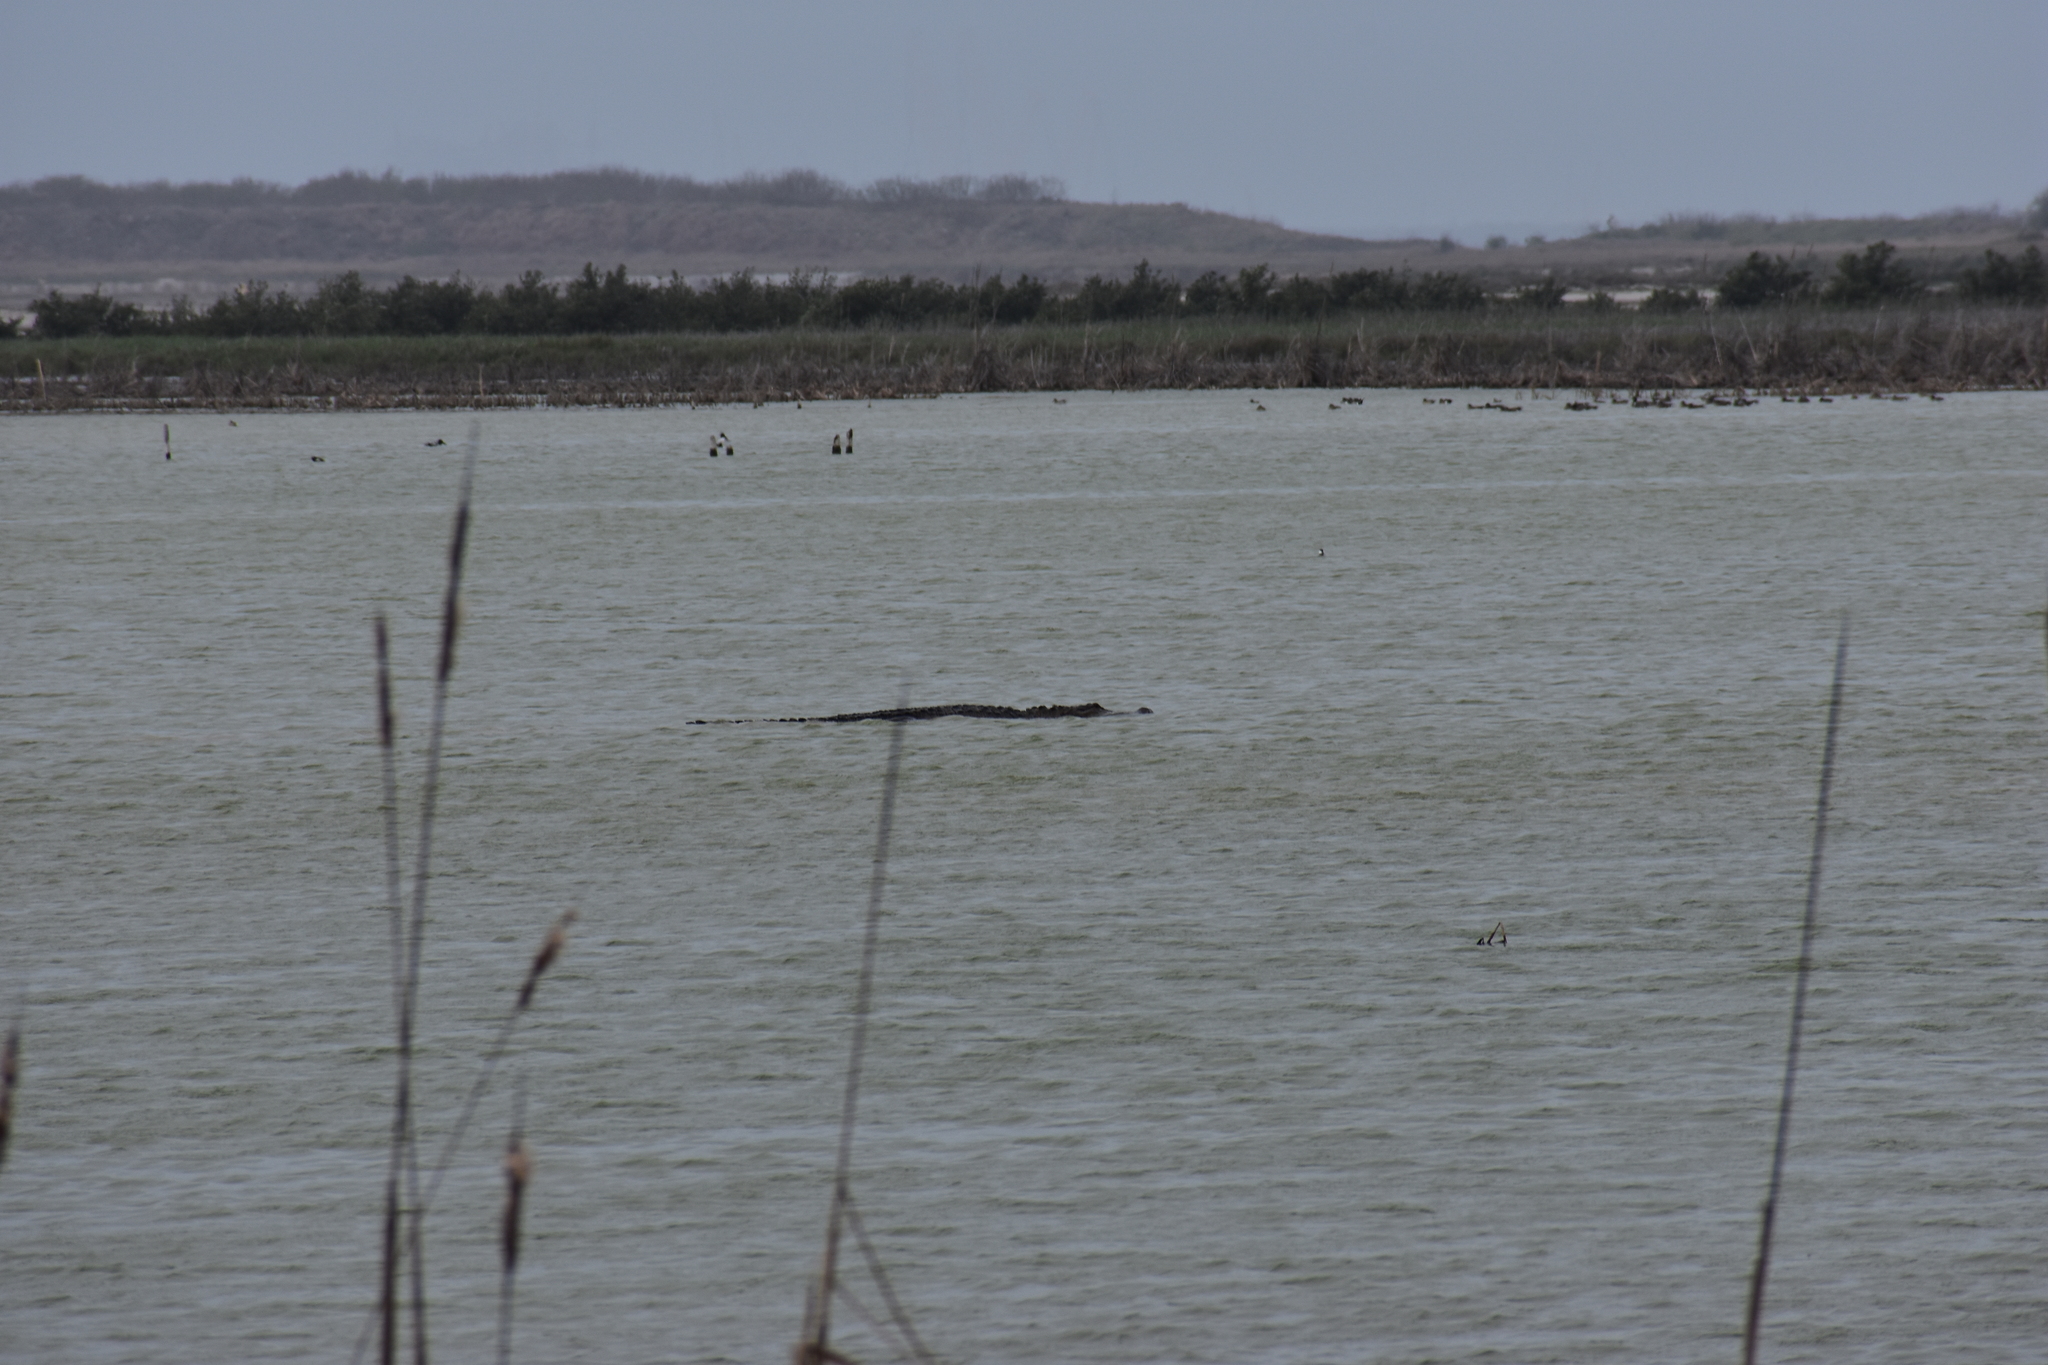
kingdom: Animalia
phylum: Chordata
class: Crocodylia
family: Alligatoridae
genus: Alligator
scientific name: Alligator mississippiensis
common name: American alligator
